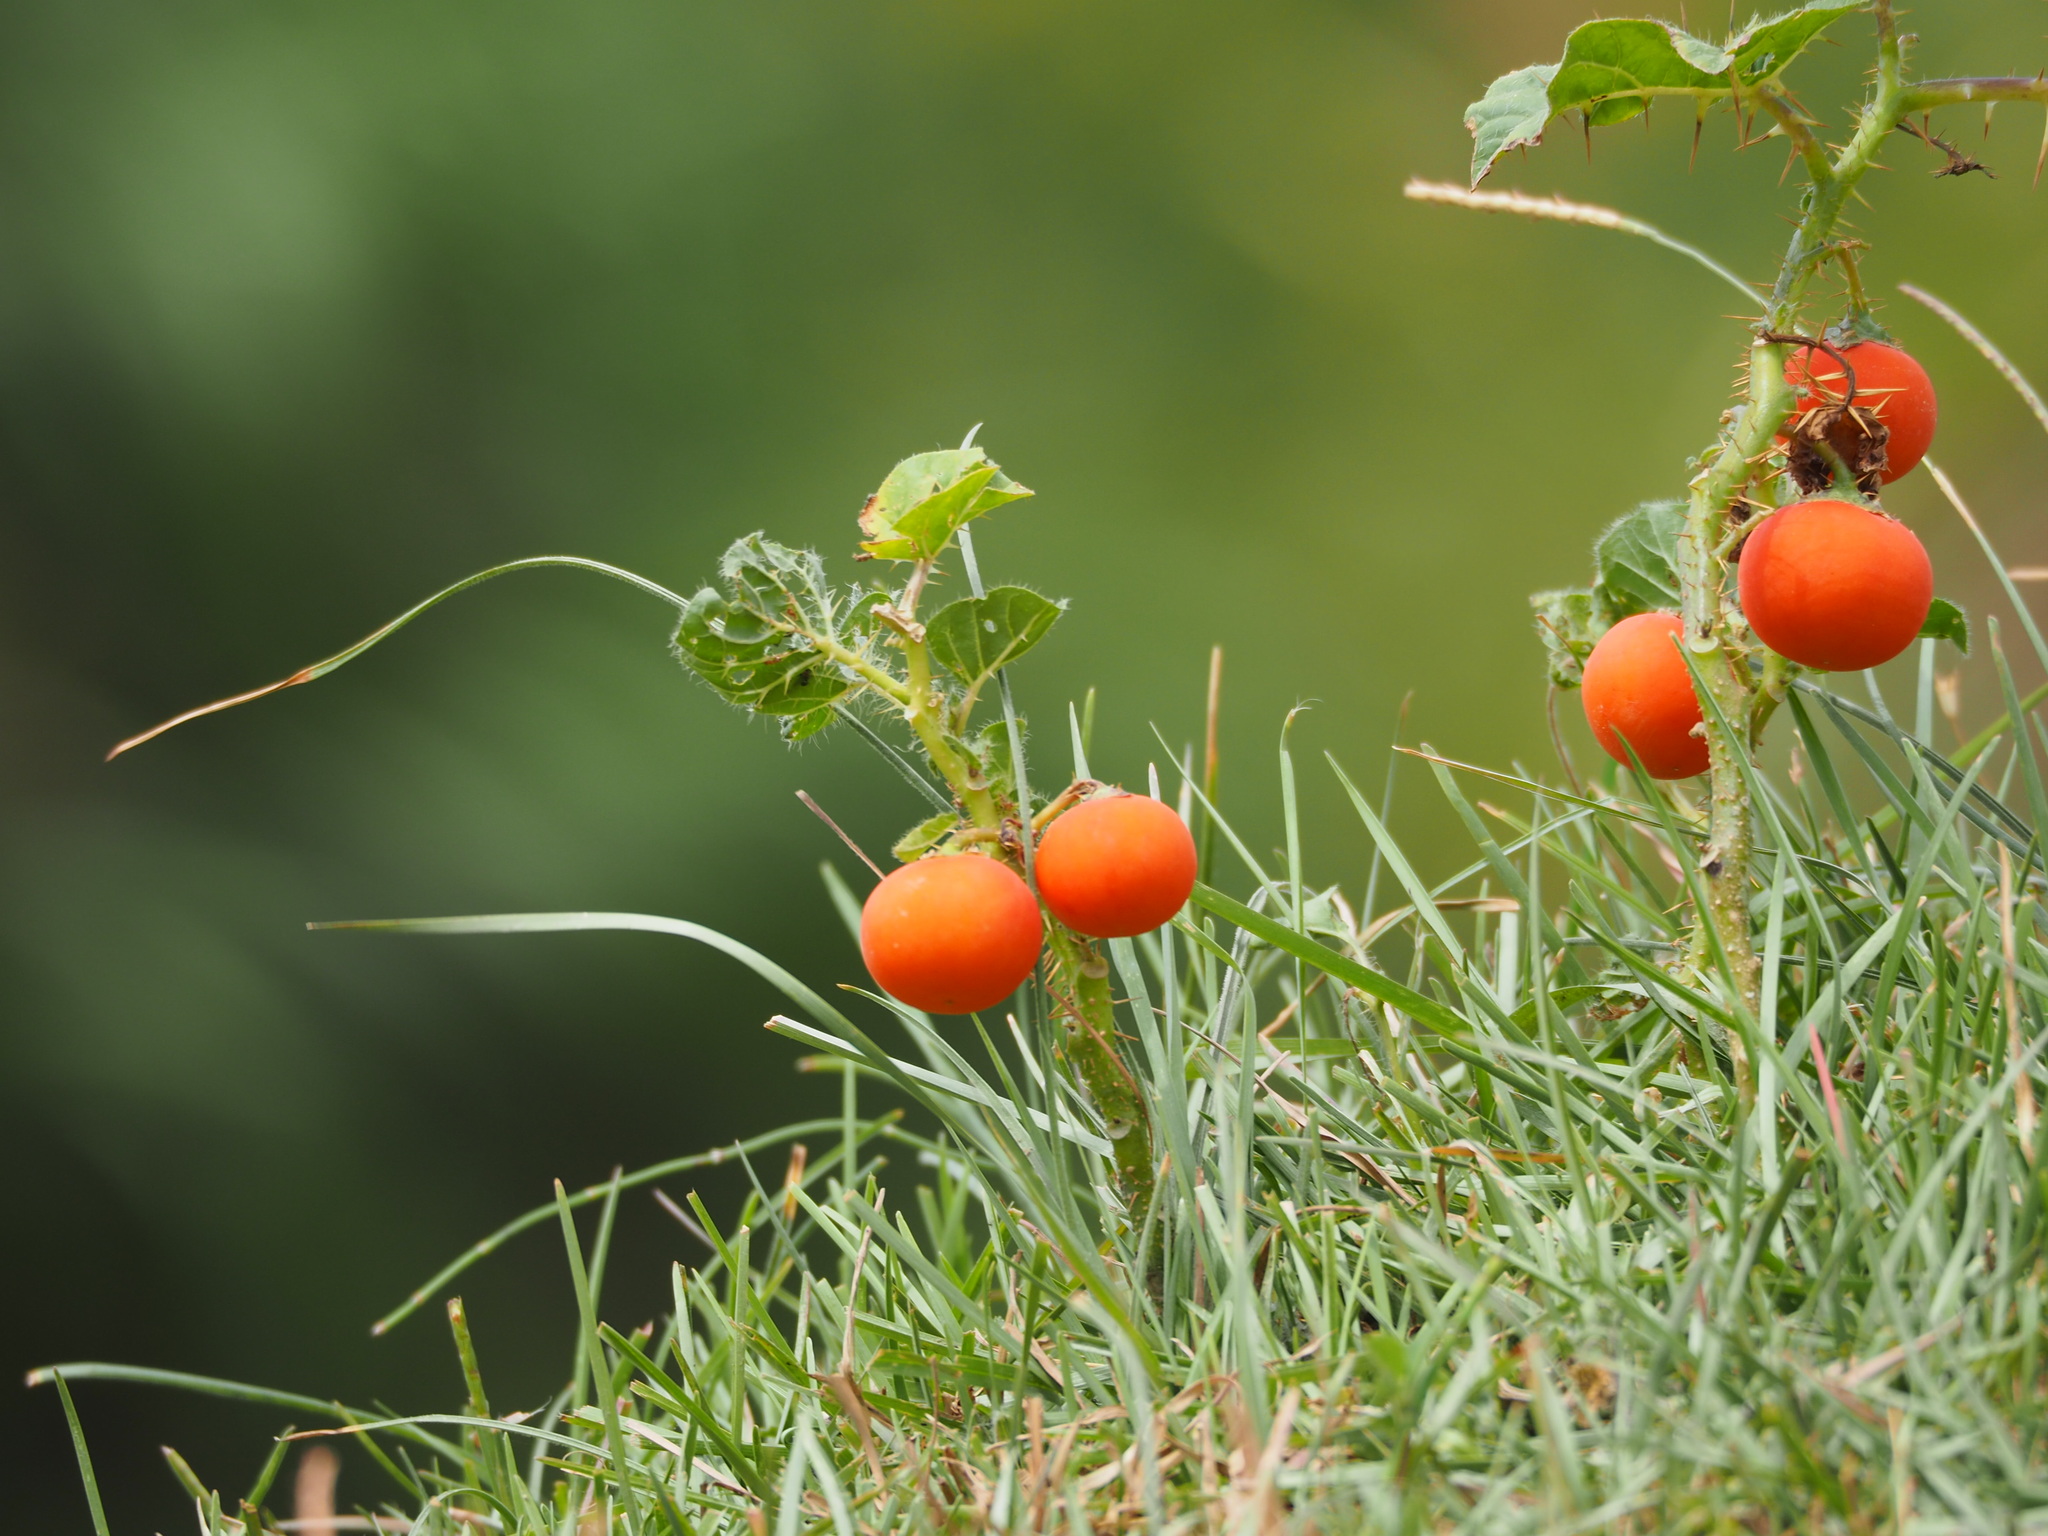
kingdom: Plantae
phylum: Tracheophyta
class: Magnoliopsida
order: Solanales
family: Solanaceae
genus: Solanum
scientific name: Solanum capsicoides
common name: Cockroach berry
